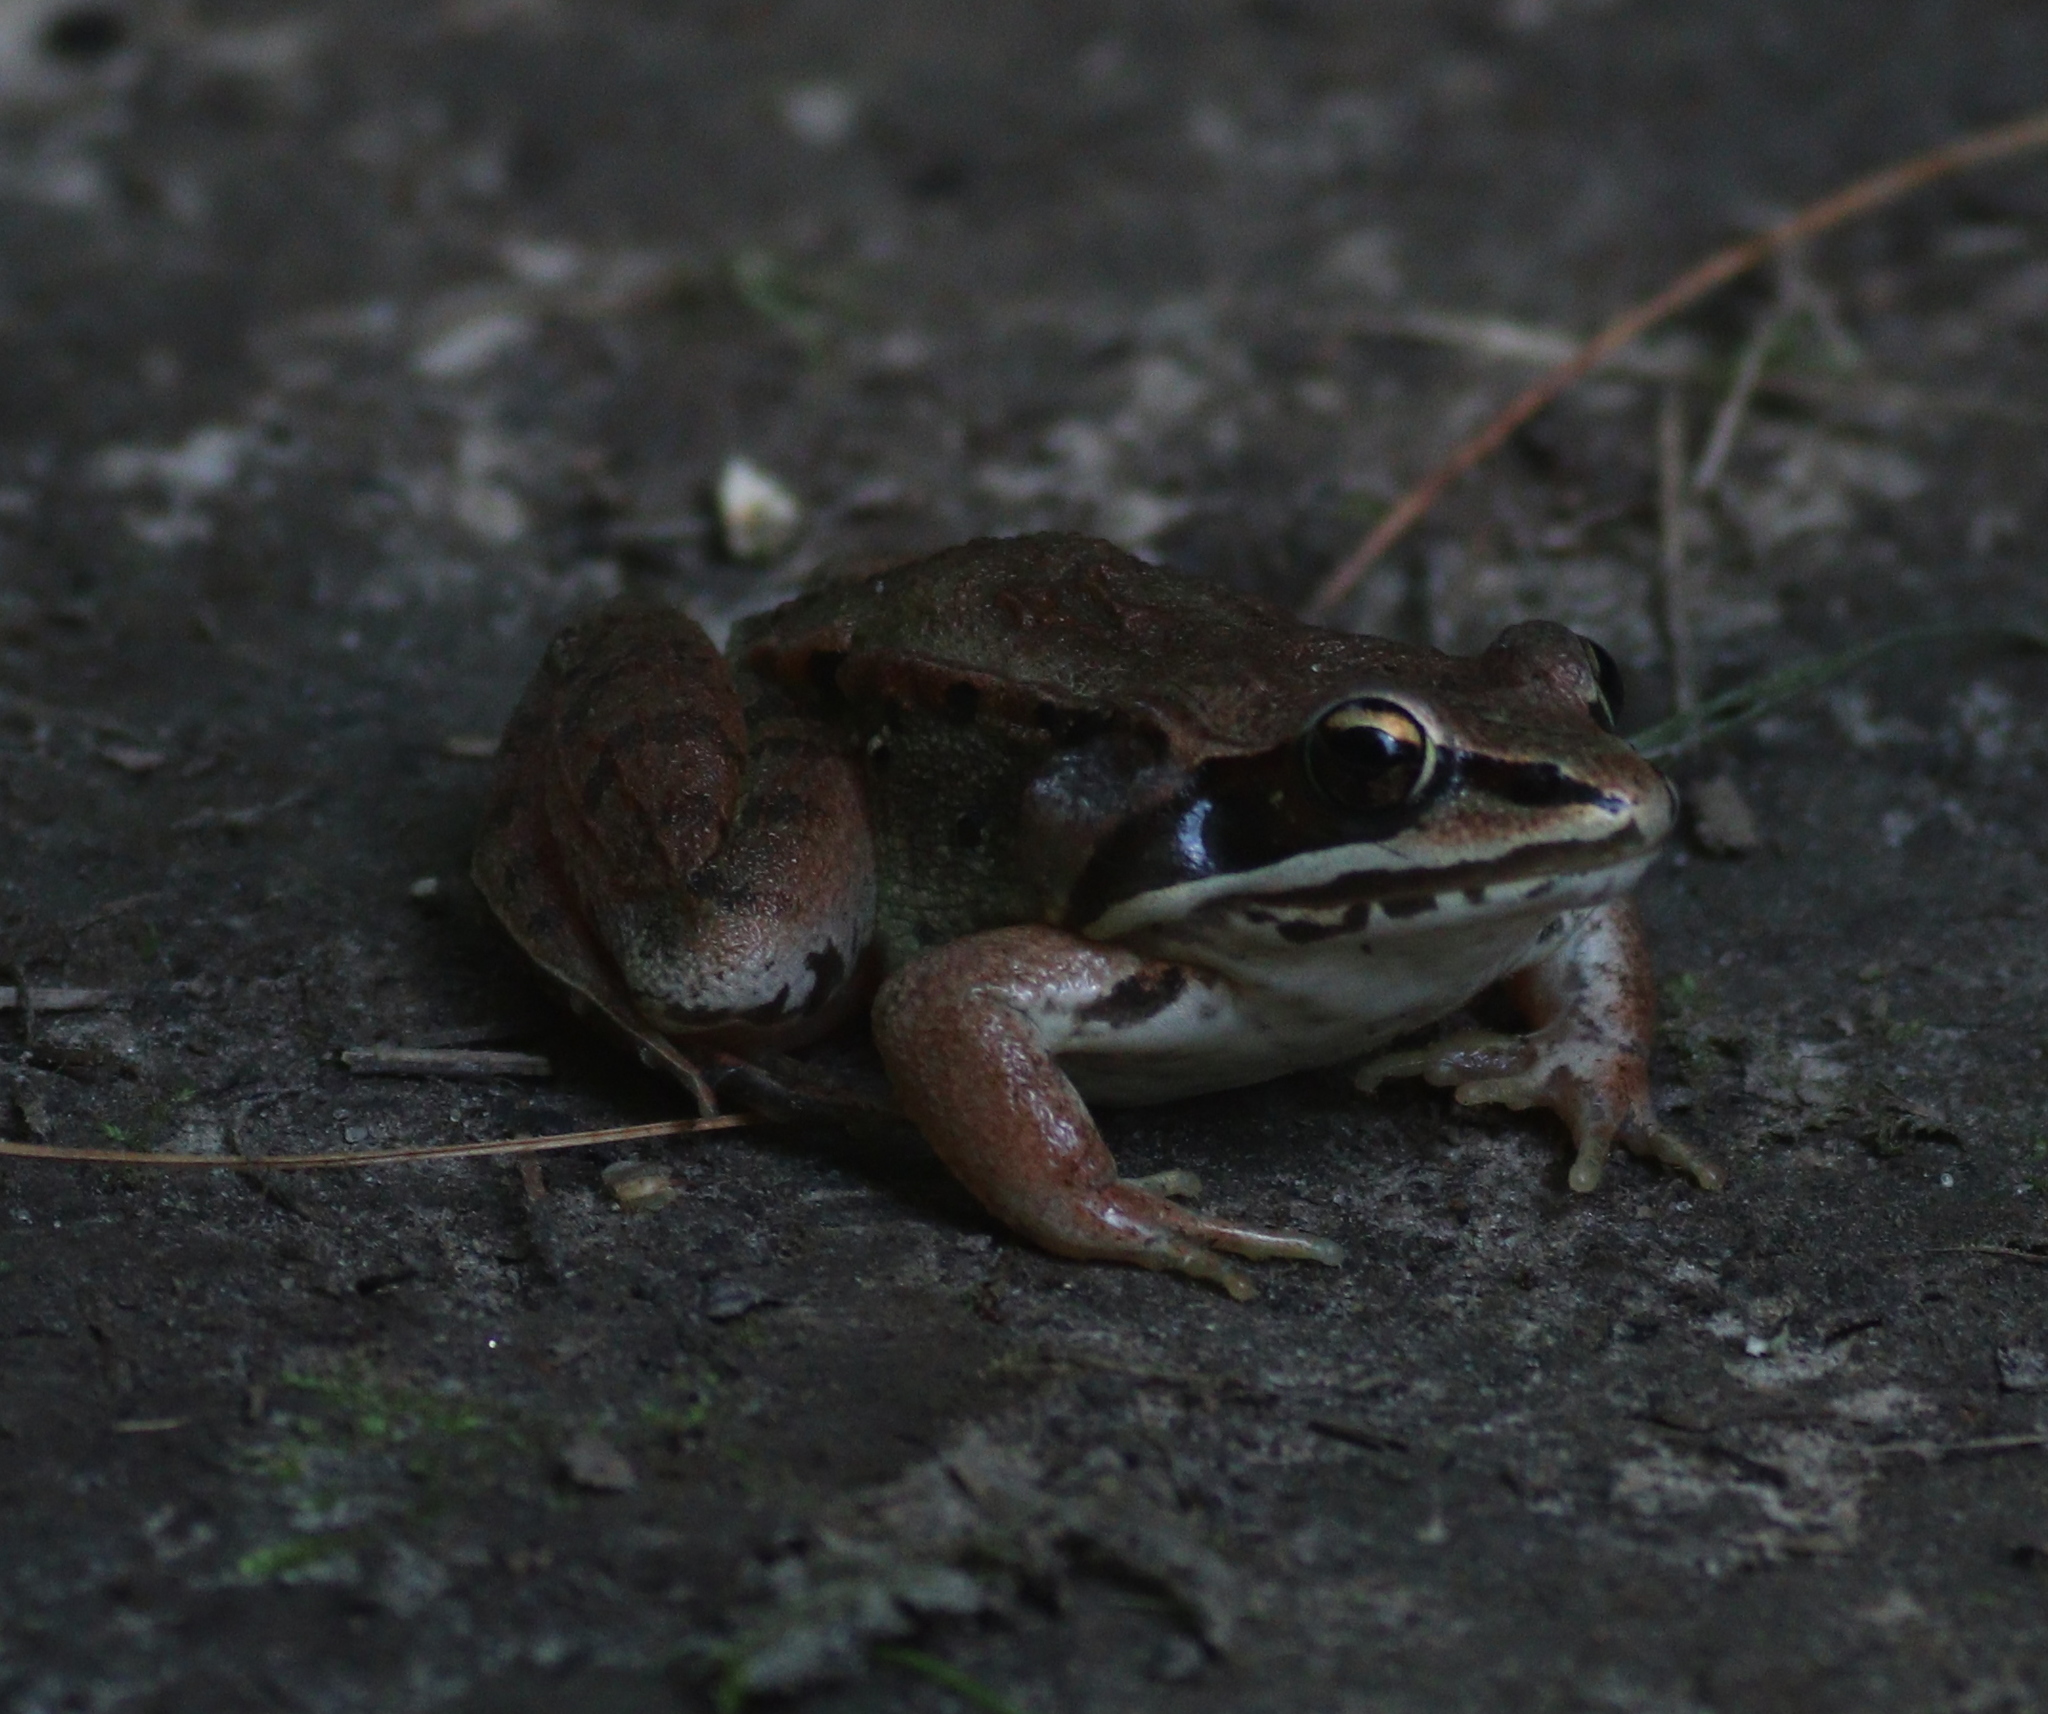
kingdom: Animalia
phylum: Chordata
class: Amphibia
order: Anura
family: Ranidae
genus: Lithobates
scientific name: Lithobates sylvaticus
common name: Wood frog
